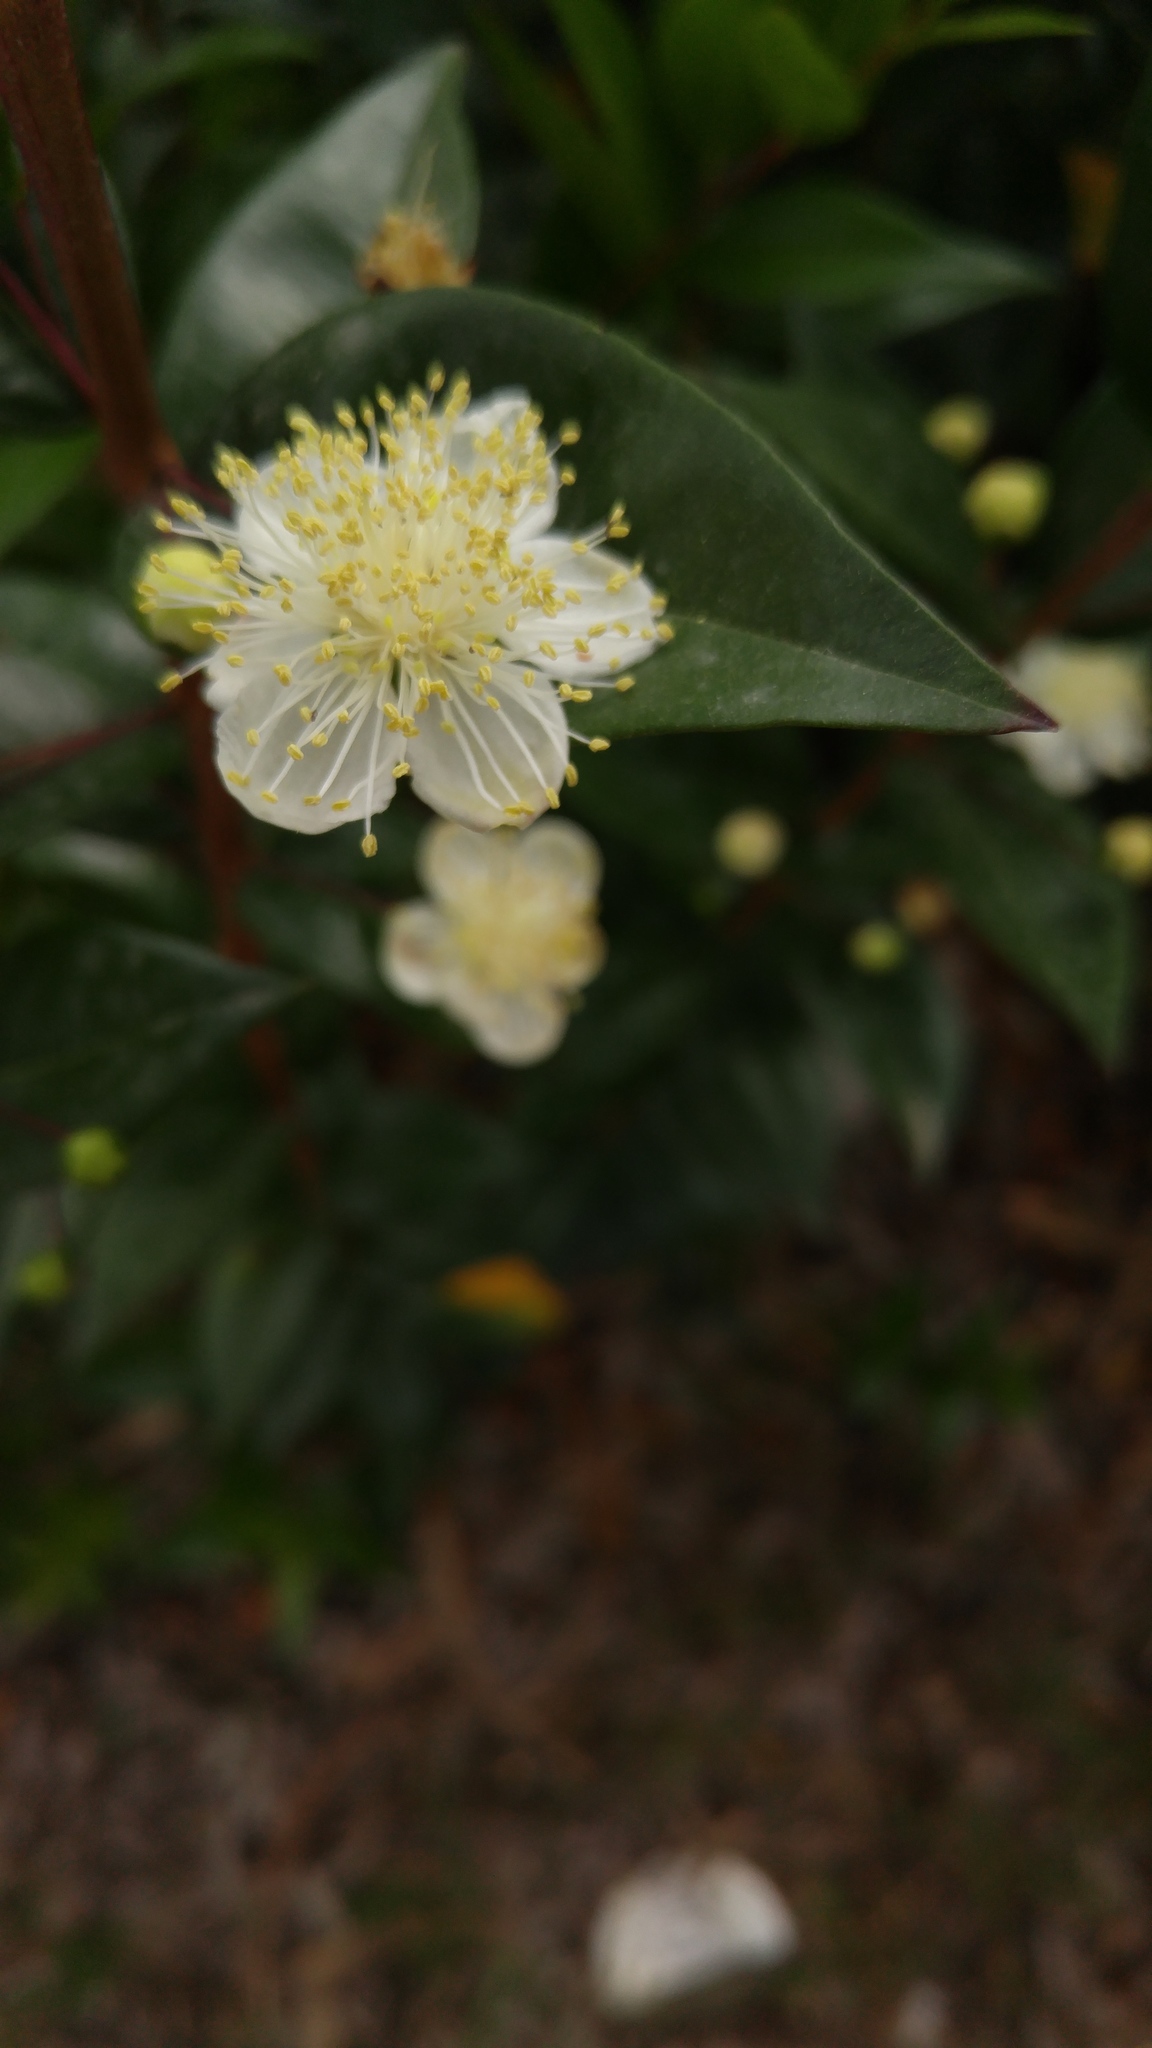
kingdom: Plantae
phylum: Tracheophyta
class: Magnoliopsida
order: Myrtales
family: Myrtaceae
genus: Myrtus
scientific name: Myrtus communis
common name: Myrtle
